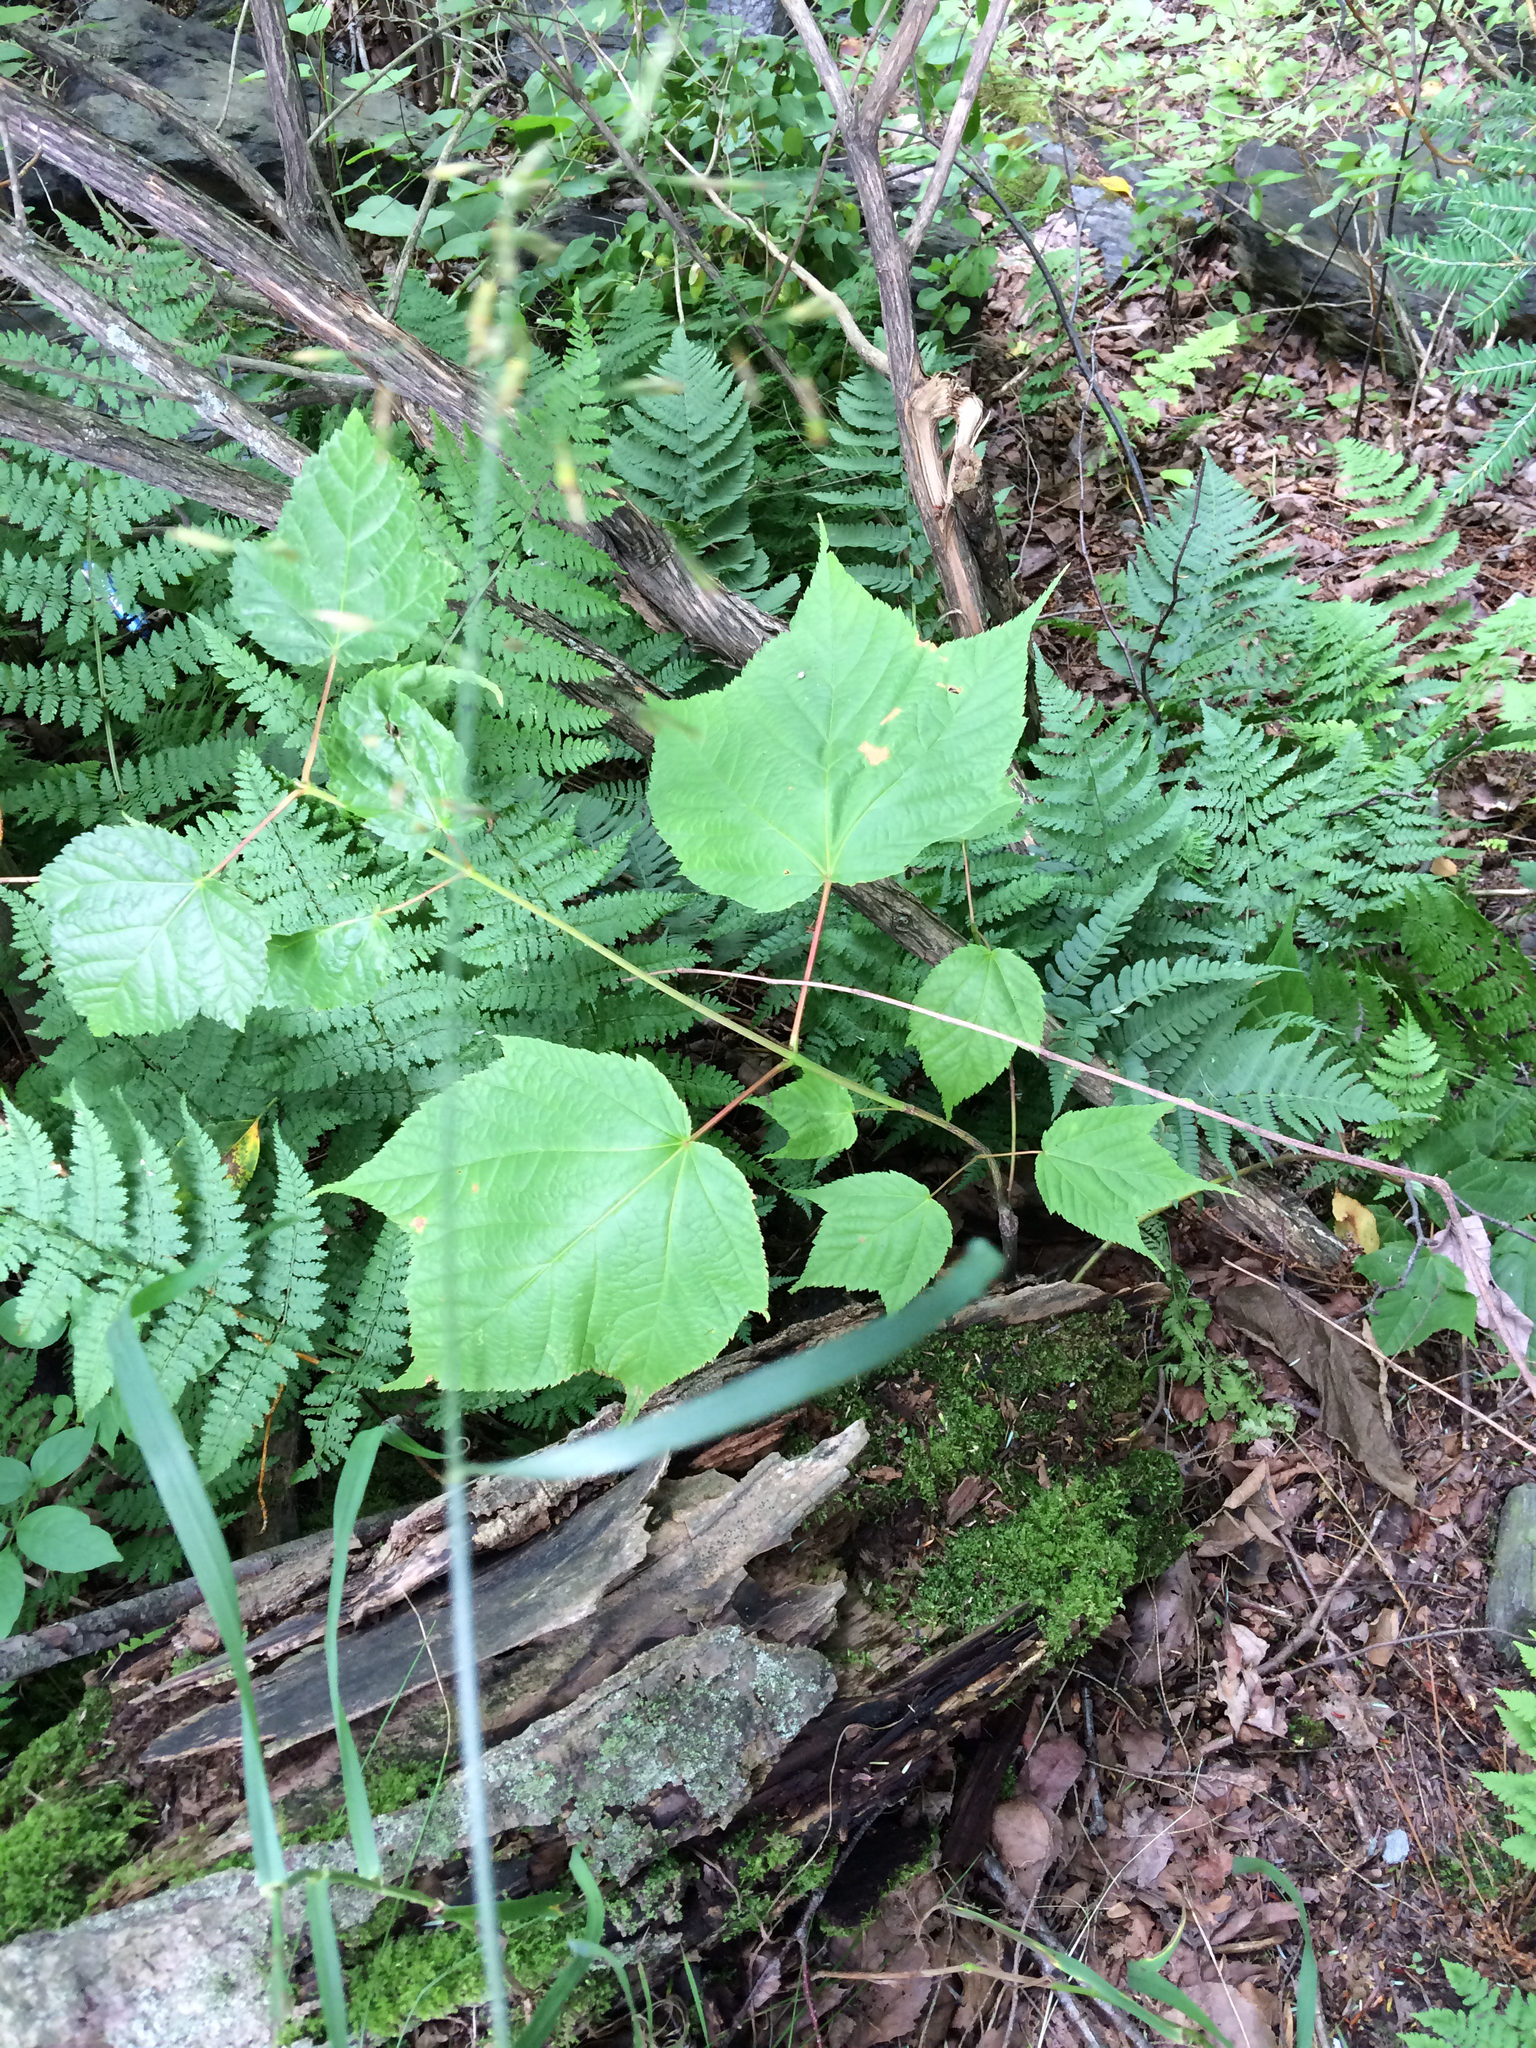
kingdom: Plantae
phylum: Tracheophyta
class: Magnoliopsida
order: Sapindales
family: Sapindaceae
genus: Acer
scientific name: Acer pensylvanicum
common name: Moosewood
